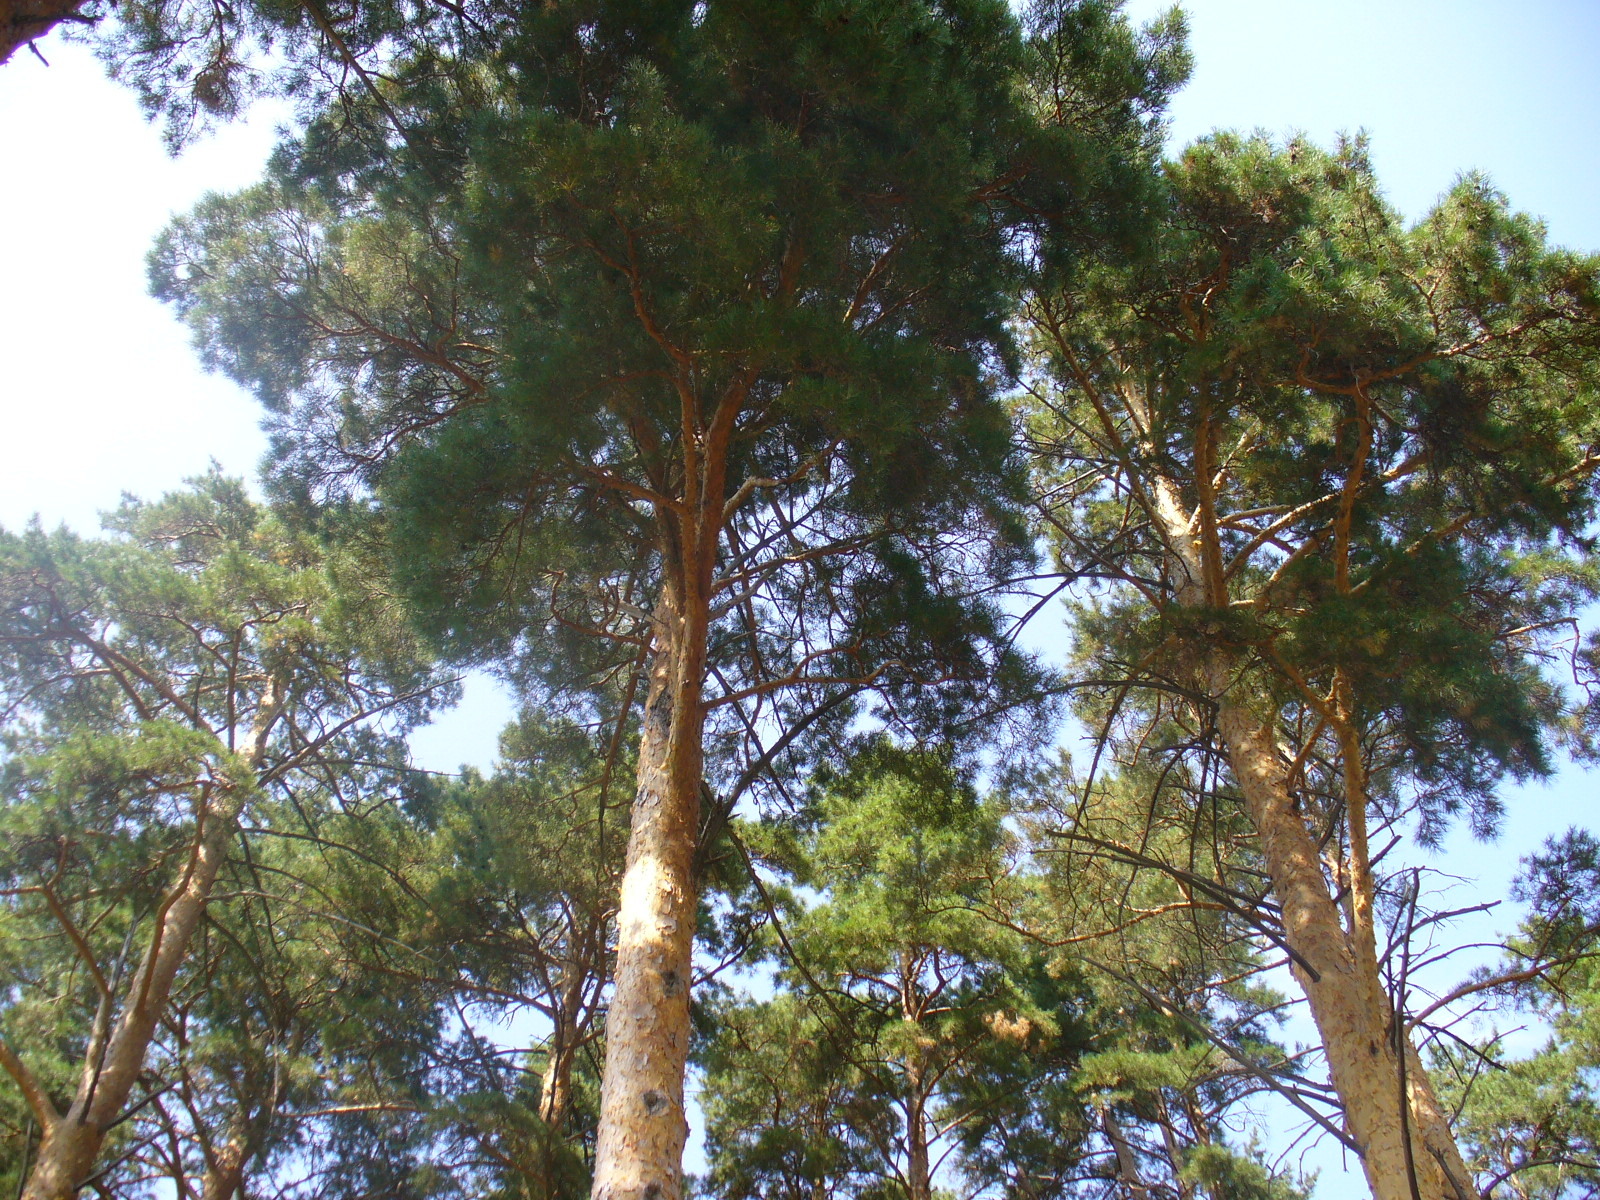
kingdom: Plantae
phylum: Tracheophyta
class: Pinopsida
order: Pinales
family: Pinaceae
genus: Pinus
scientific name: Pinus sylvestris
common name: Scots pine
